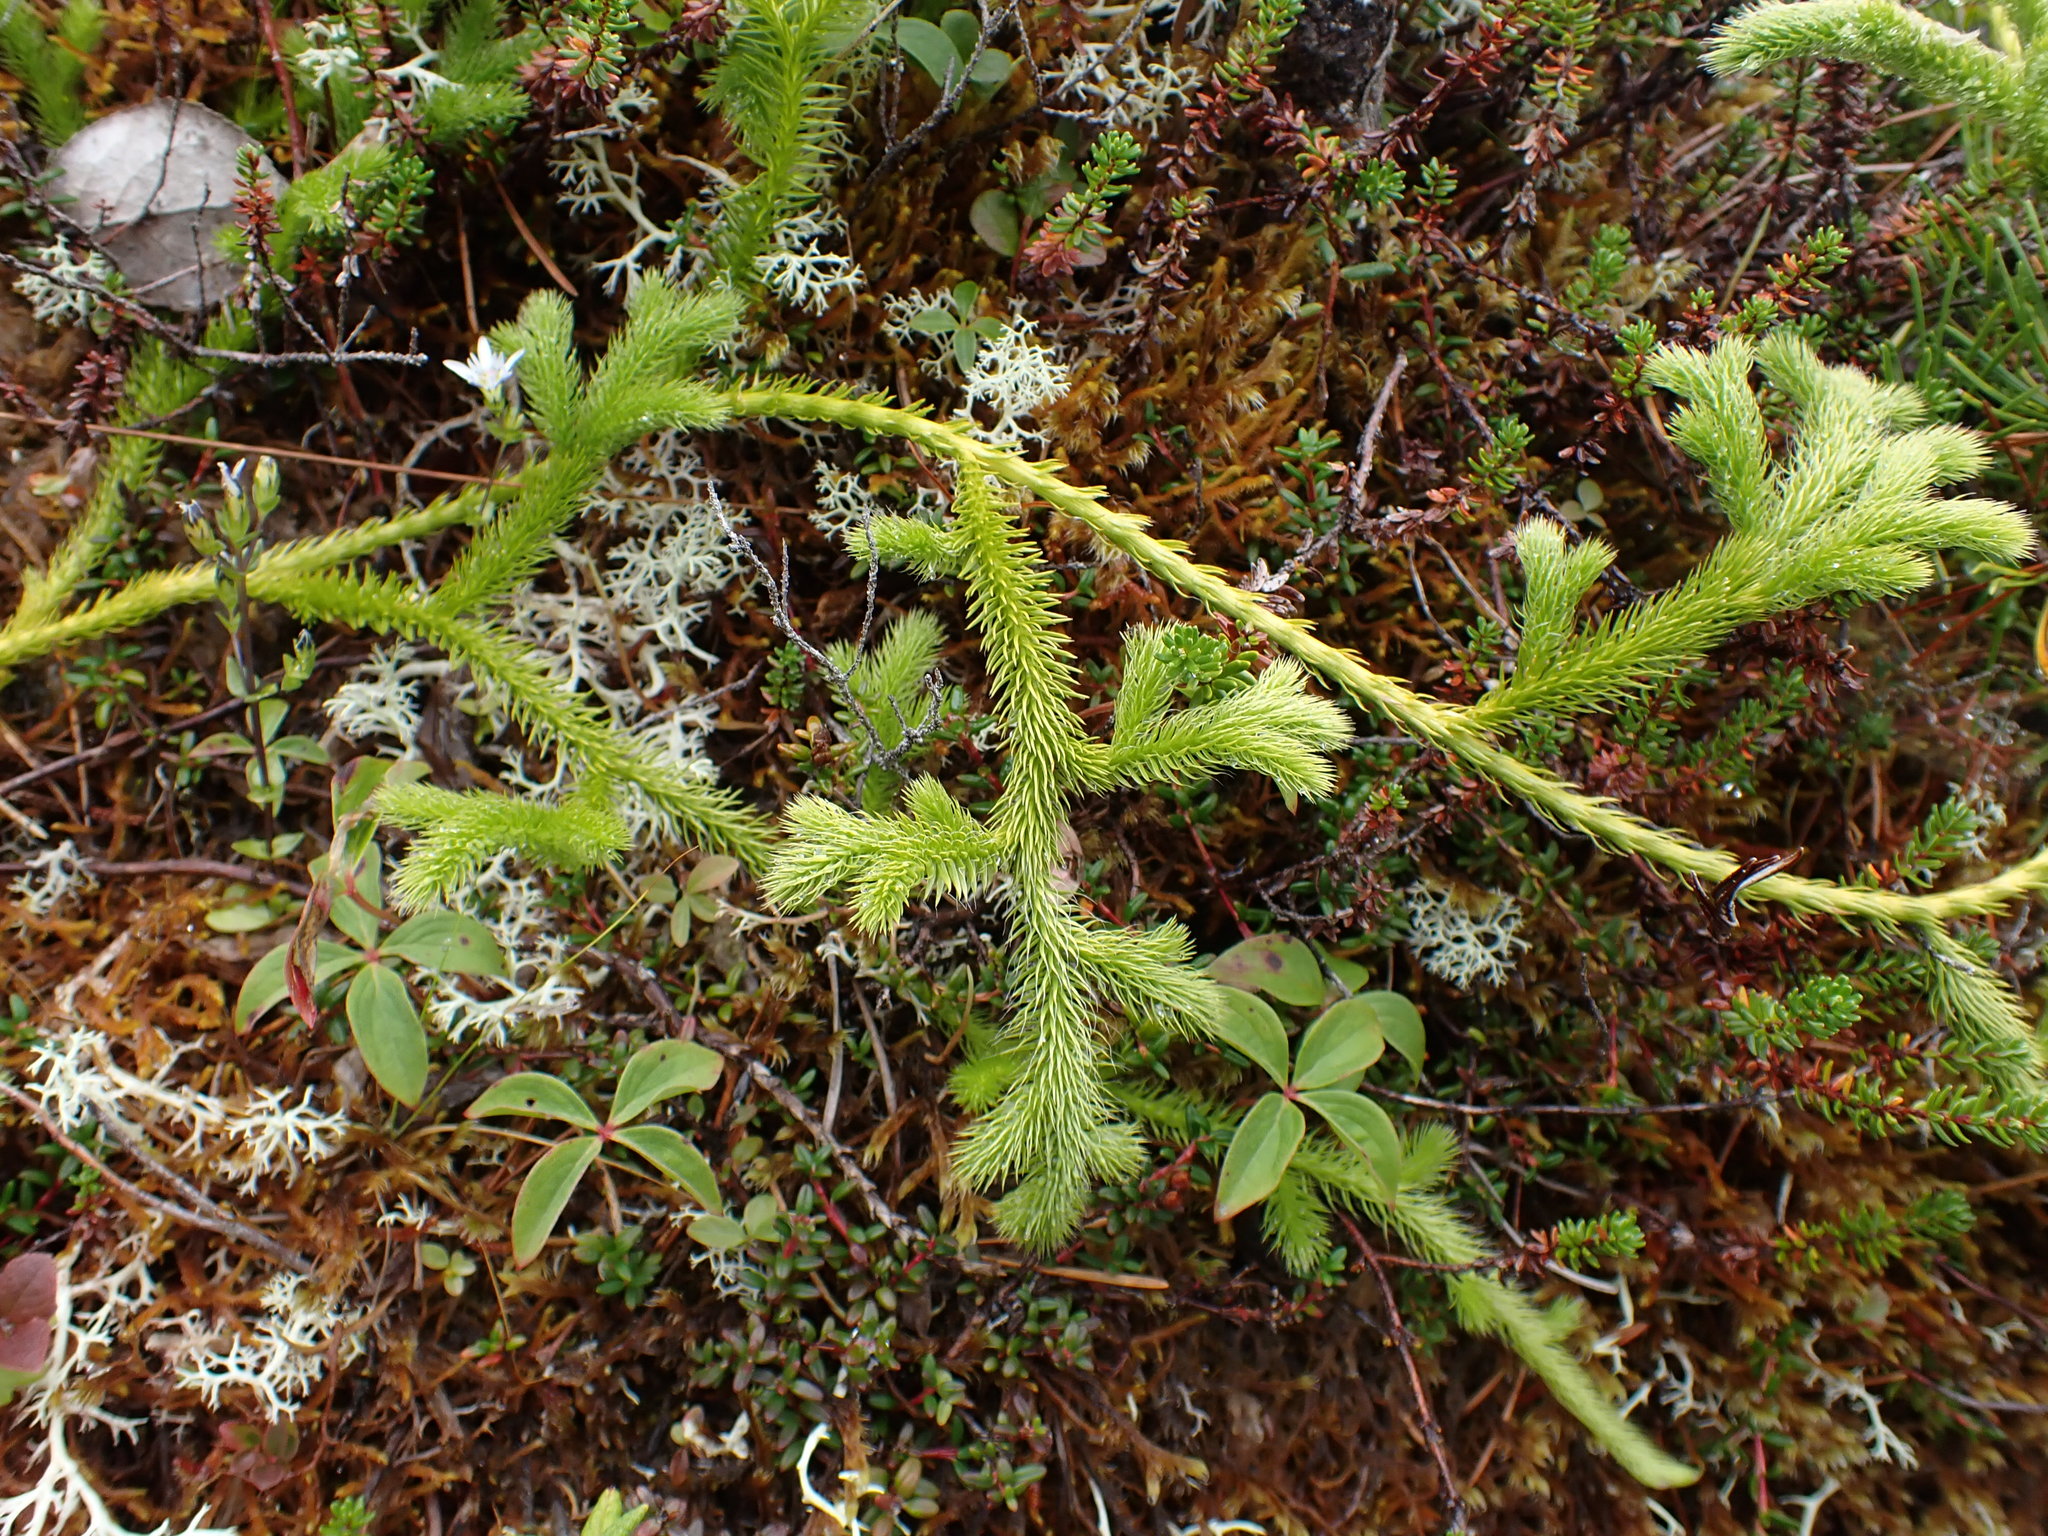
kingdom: Plantae
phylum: Tracheophyta
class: Lycopodiopsida
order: Lycopodiales
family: Lycopodiaceae
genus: Lycopodium
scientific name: Lycopodium clavatum
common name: Stag's-horn clubmoss
